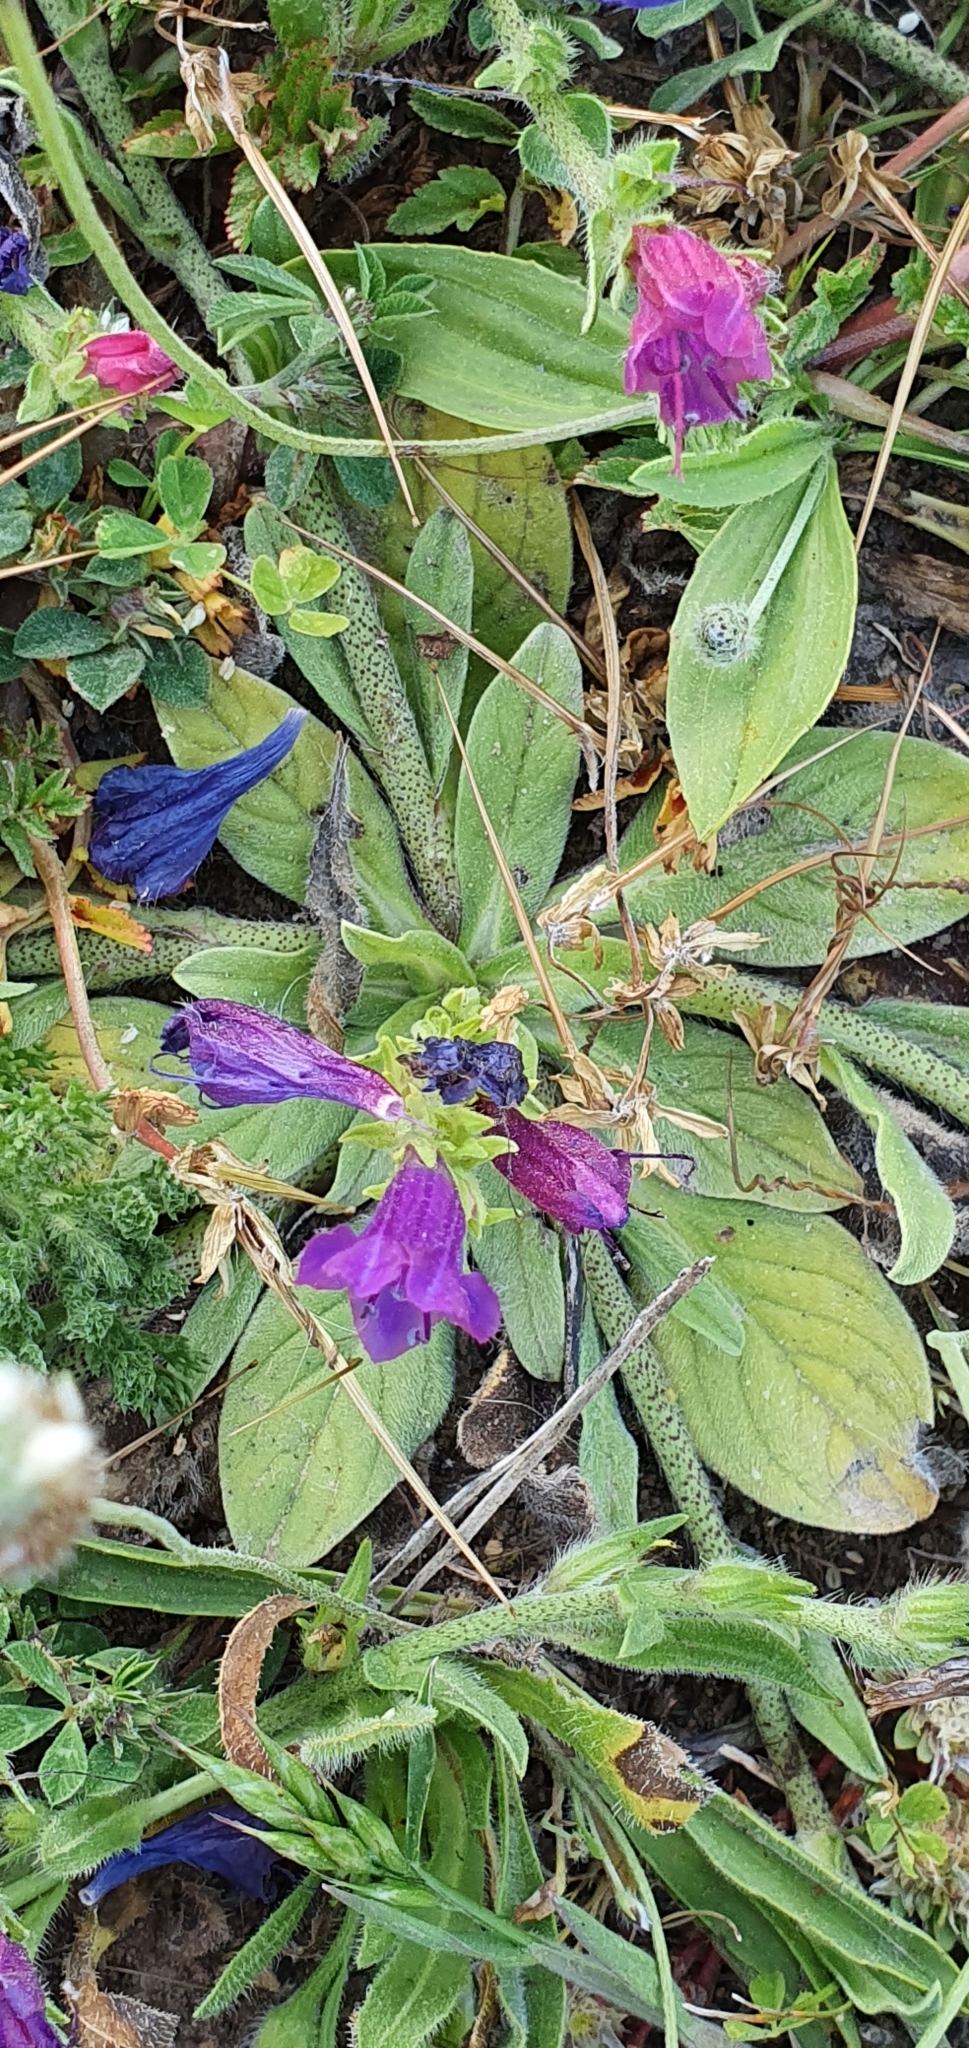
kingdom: Plantae
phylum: Tracheophyta
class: Magnoliopsida
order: Boraginales
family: Boraginaceae
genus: Echium
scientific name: Echium plantagineum
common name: Purple viper's-bugloss
